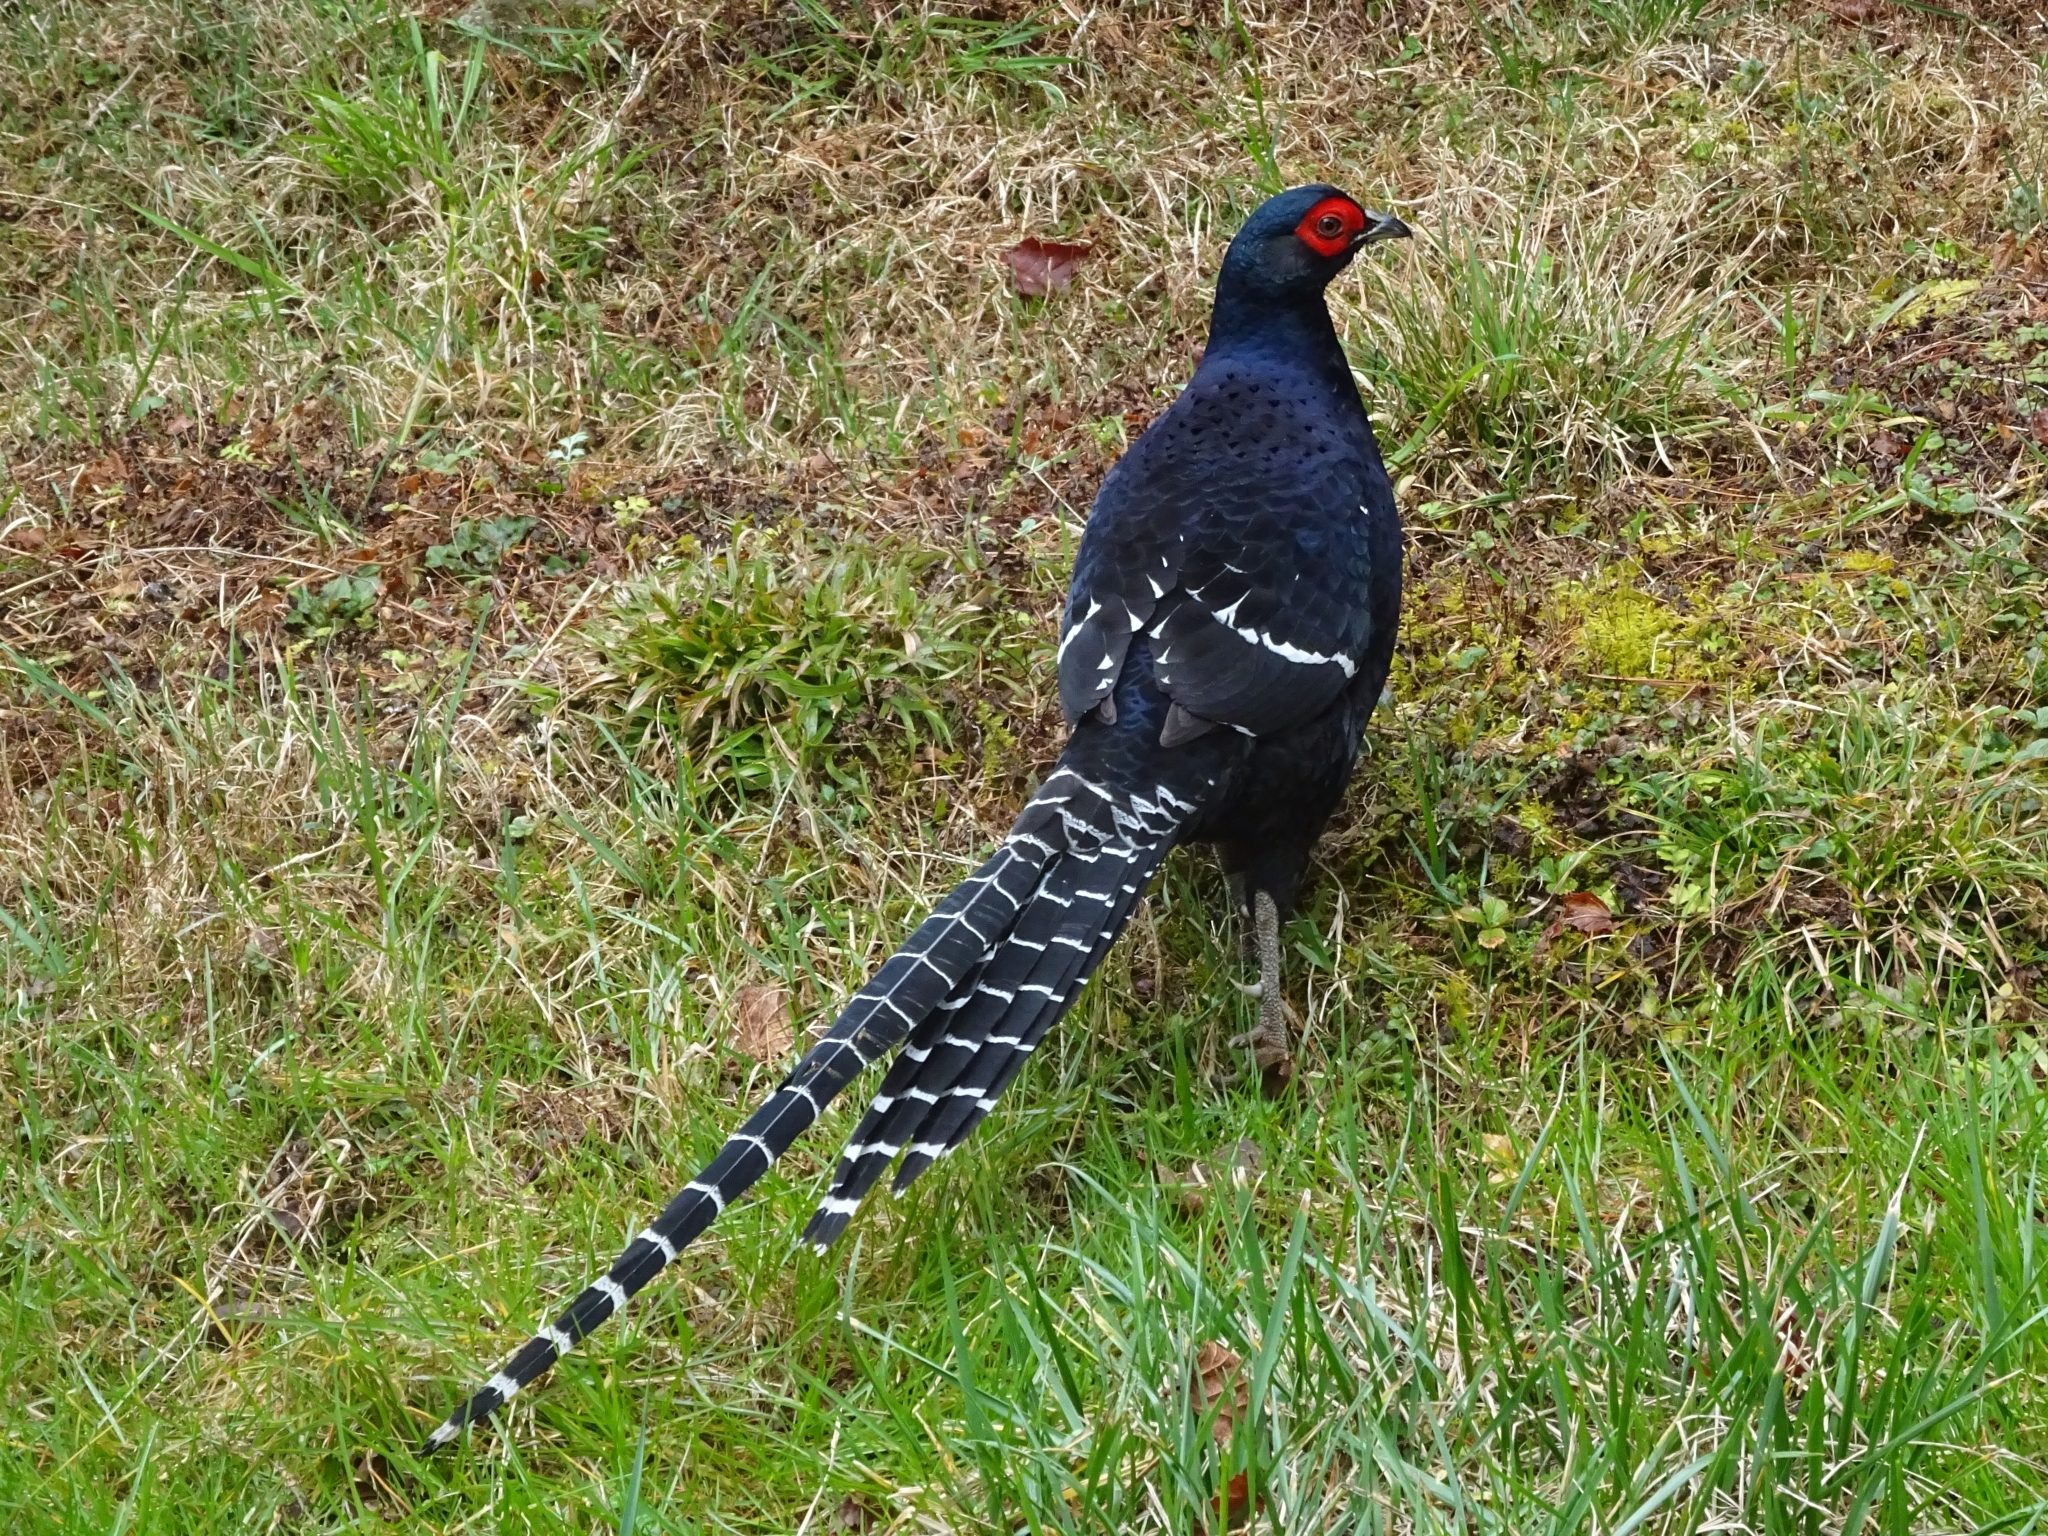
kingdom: Animalia
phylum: Chordata
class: Aves
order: Galliformes
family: Phasianidae
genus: Syrmaticus
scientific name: Syrmaticus mikado
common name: Mikado pheasant
